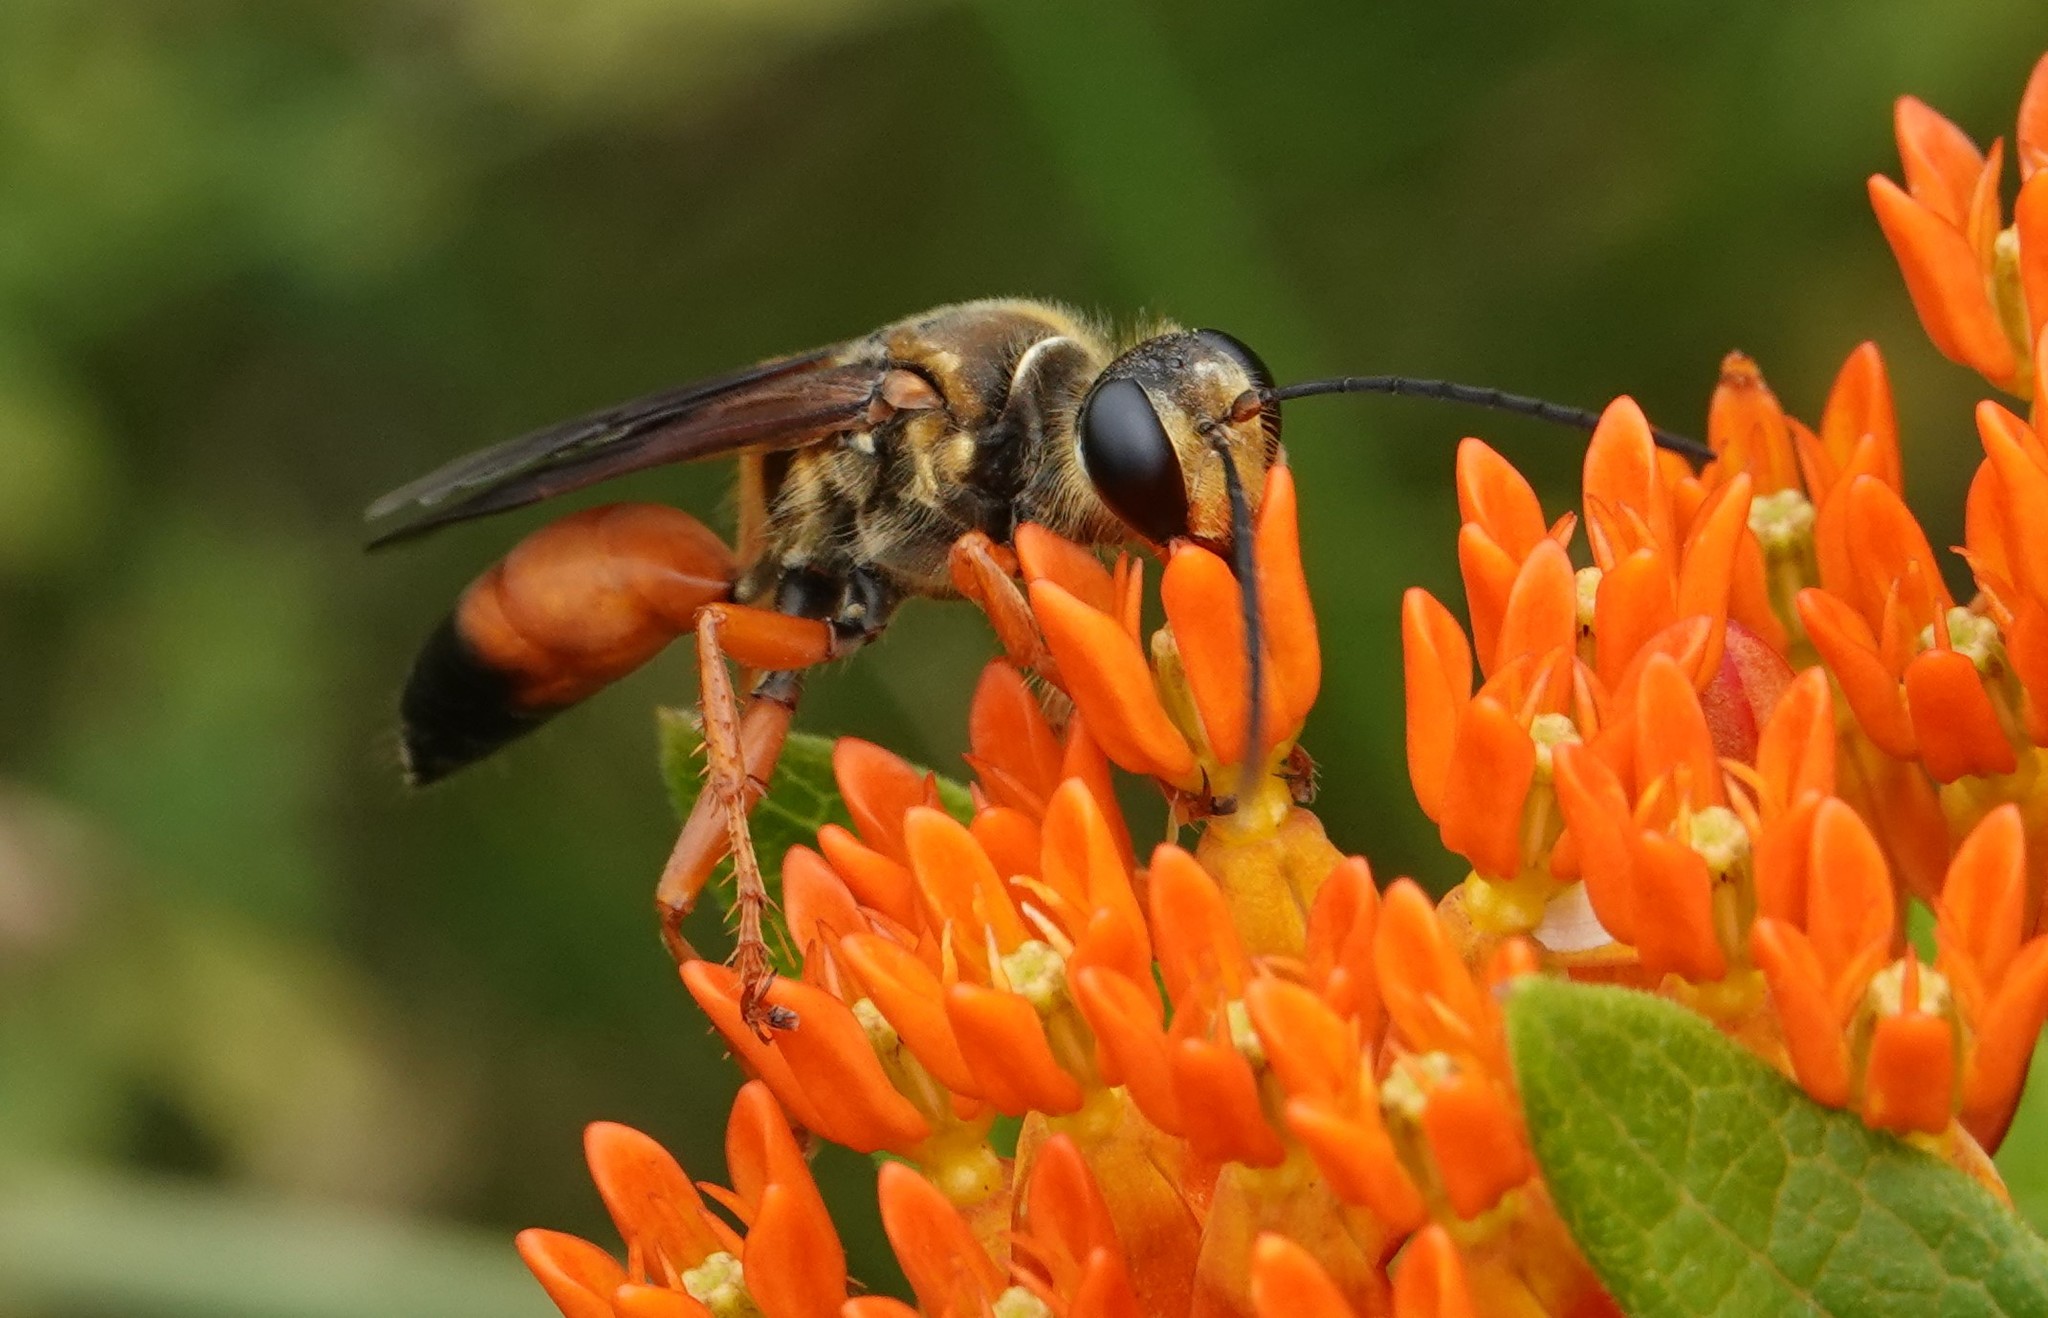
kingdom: Animalia
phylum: Arthropoda
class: Insecta
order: Hymenoptera
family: Sphecidae
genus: Sphex
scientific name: Sphex ichneumoneus
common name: Great golden digger wasp
